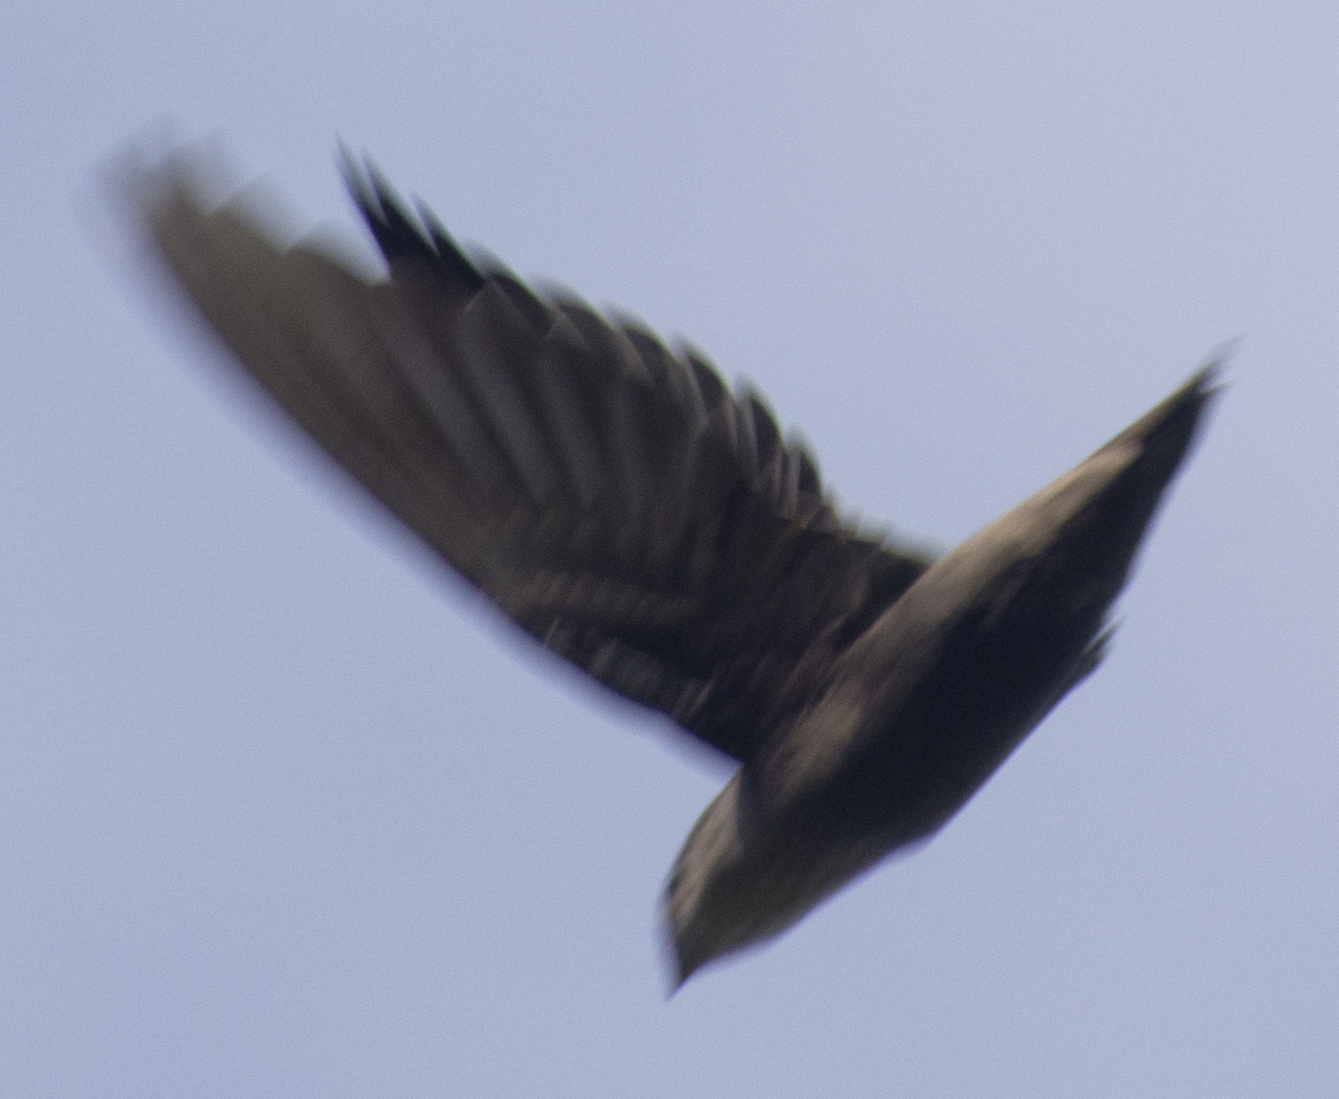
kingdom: Animalia
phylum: Chordata
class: Aves
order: Apodiformes
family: Apodidae
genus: Chaetura
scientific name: Chaetura pelagica
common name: Chimney swift
